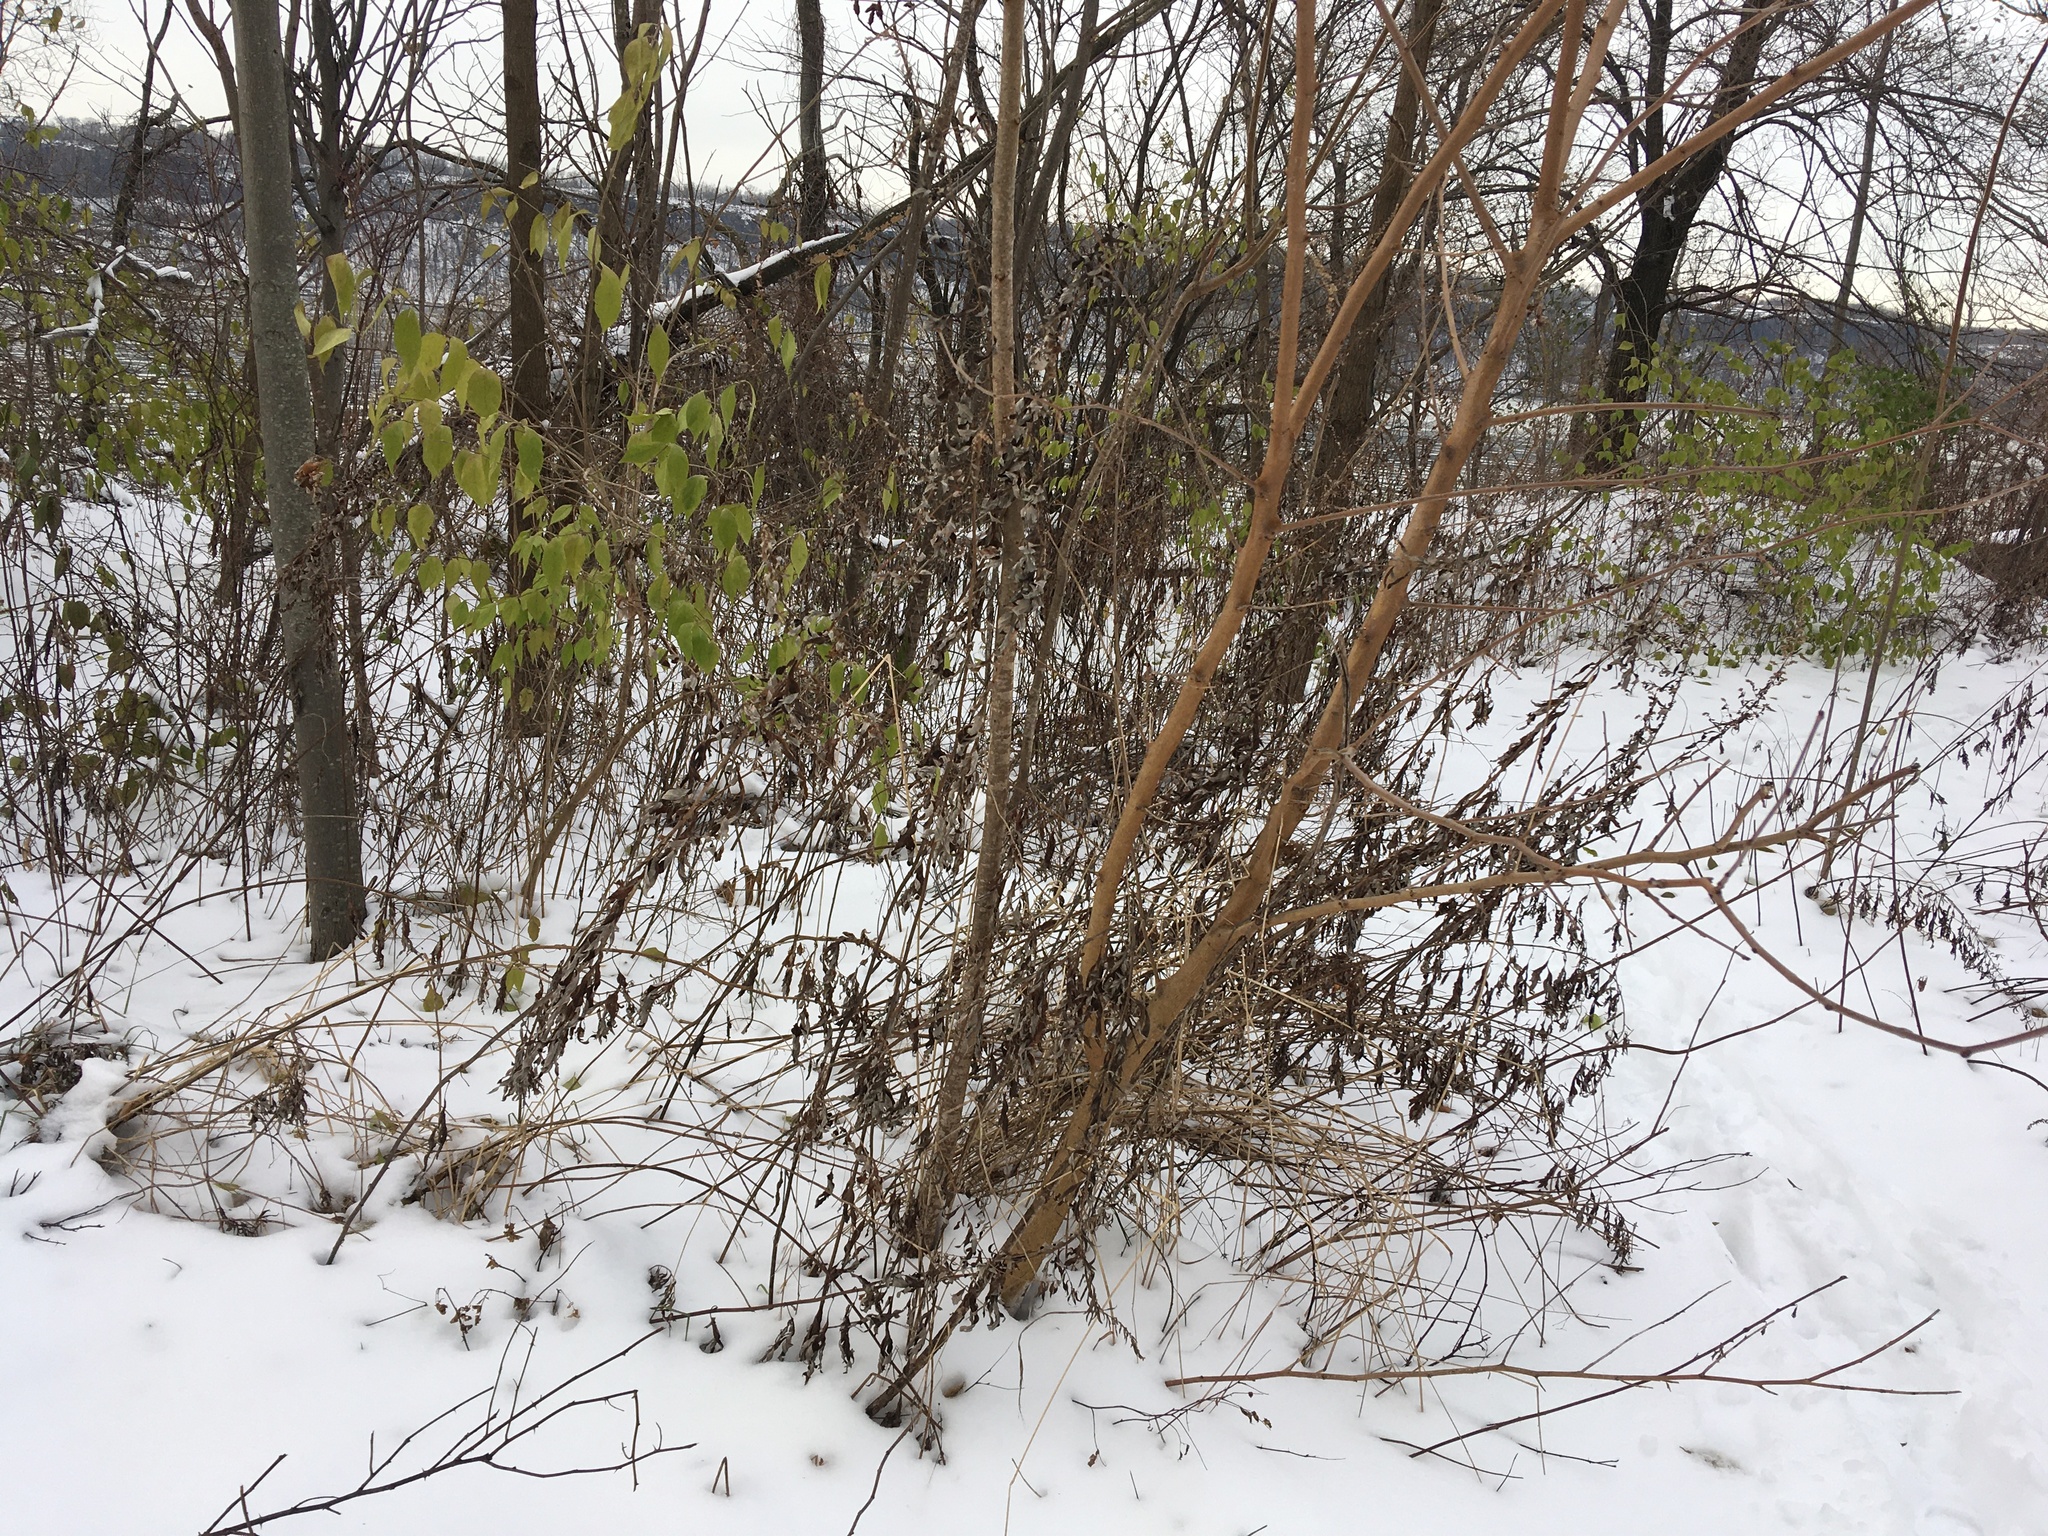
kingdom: Plantae
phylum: Tracheophyta
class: Magnoliopsida
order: Asterales
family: Asteraceae
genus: Artemisia
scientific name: Artemisia vulgaris
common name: Mugwort
